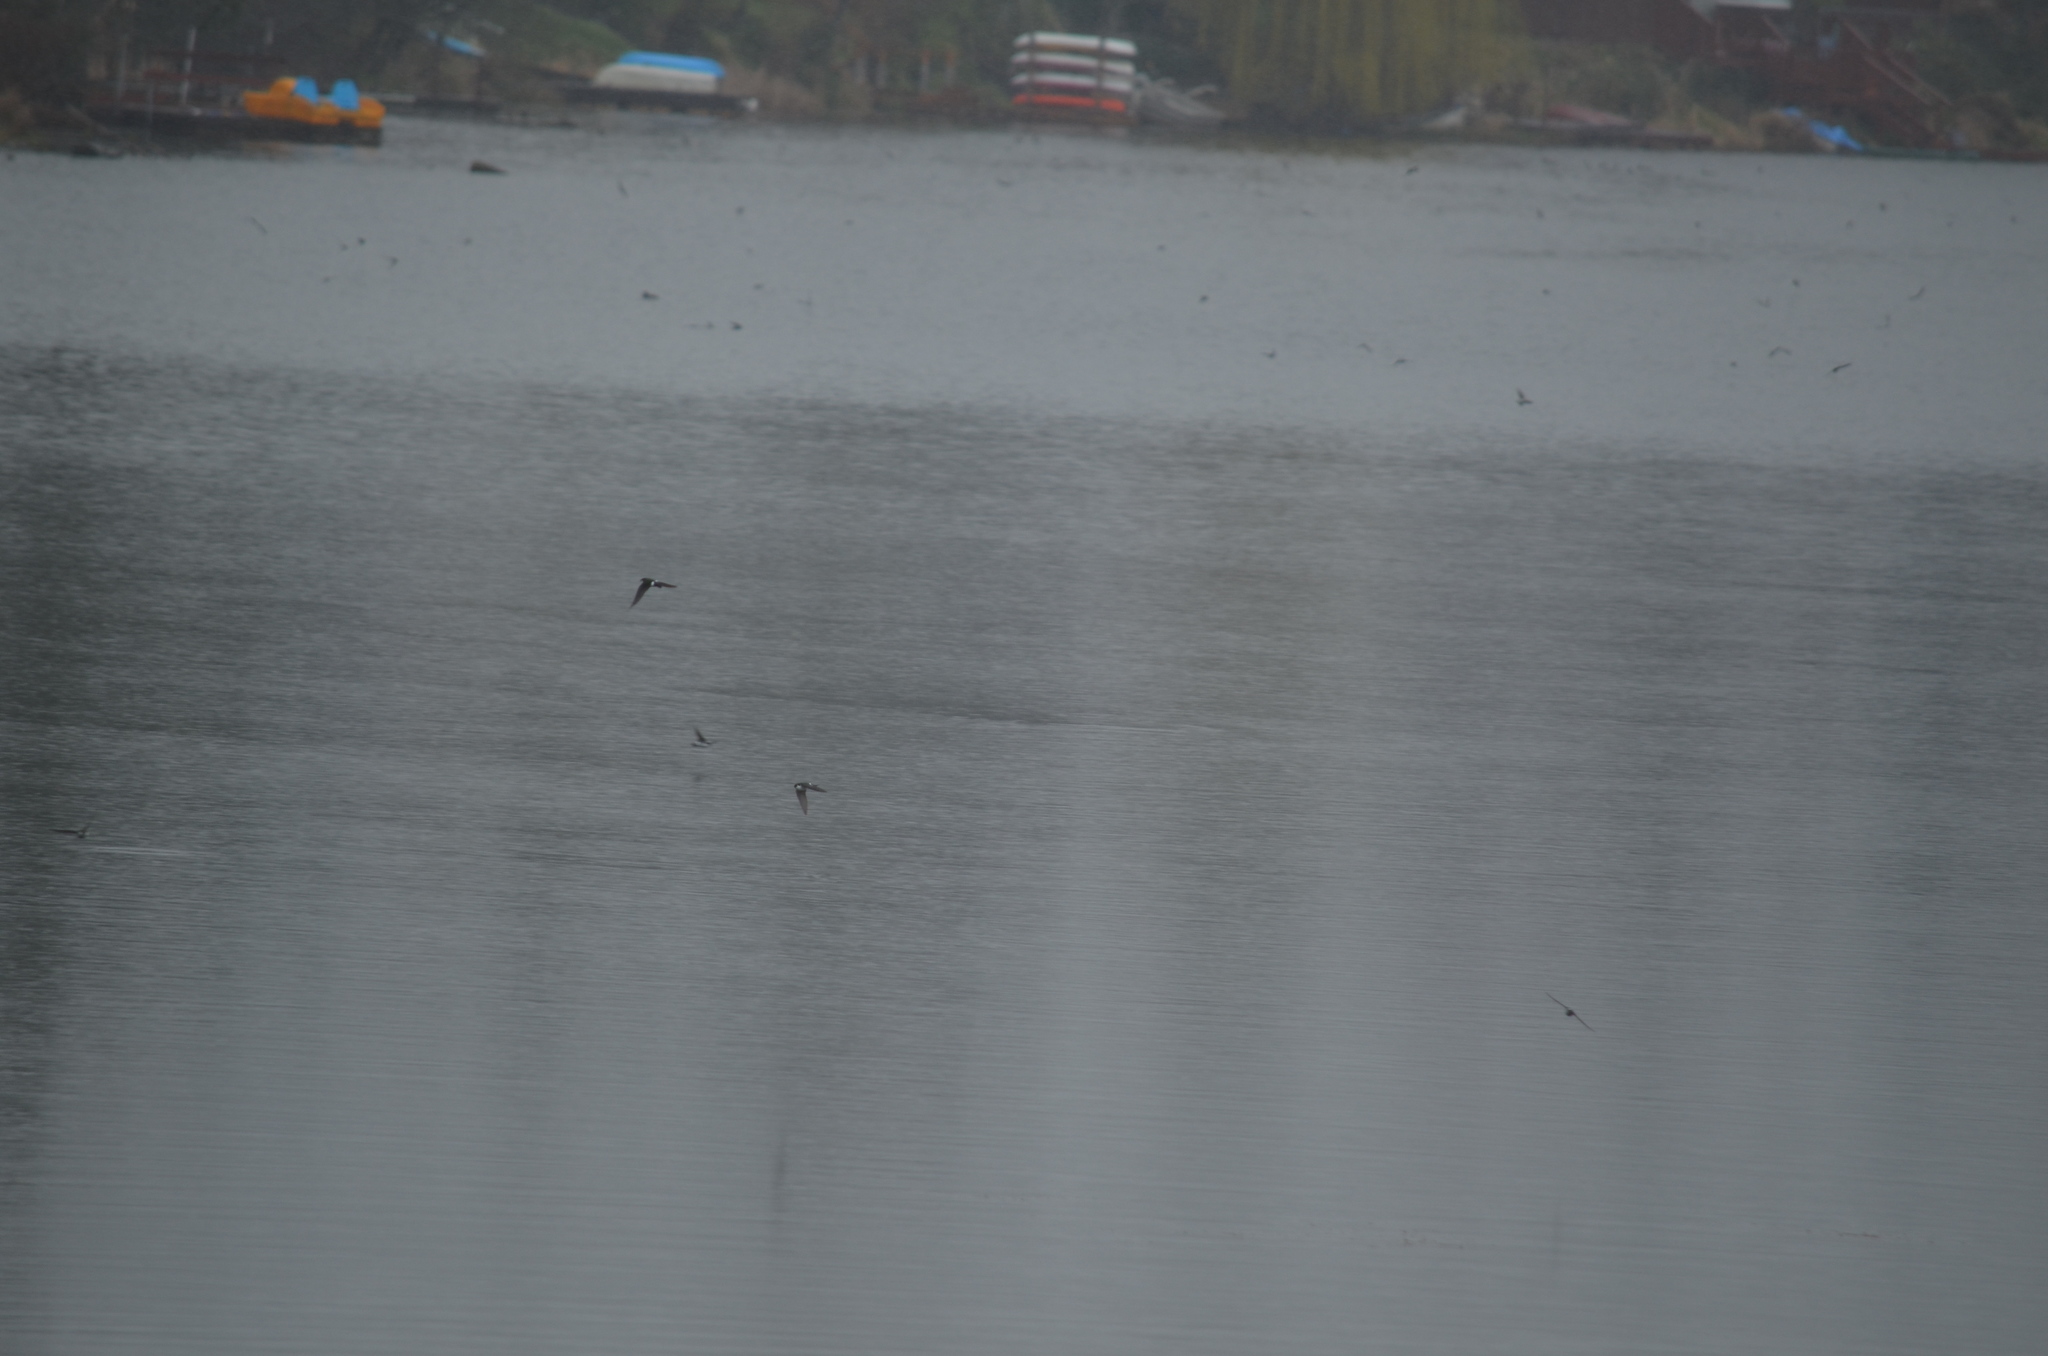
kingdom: Animalia
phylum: Chordata
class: Aves
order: Passeriformes
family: Hirundinidae
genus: Tachycineta
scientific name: Tachycineta thalassina
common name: Violet-green swallow
